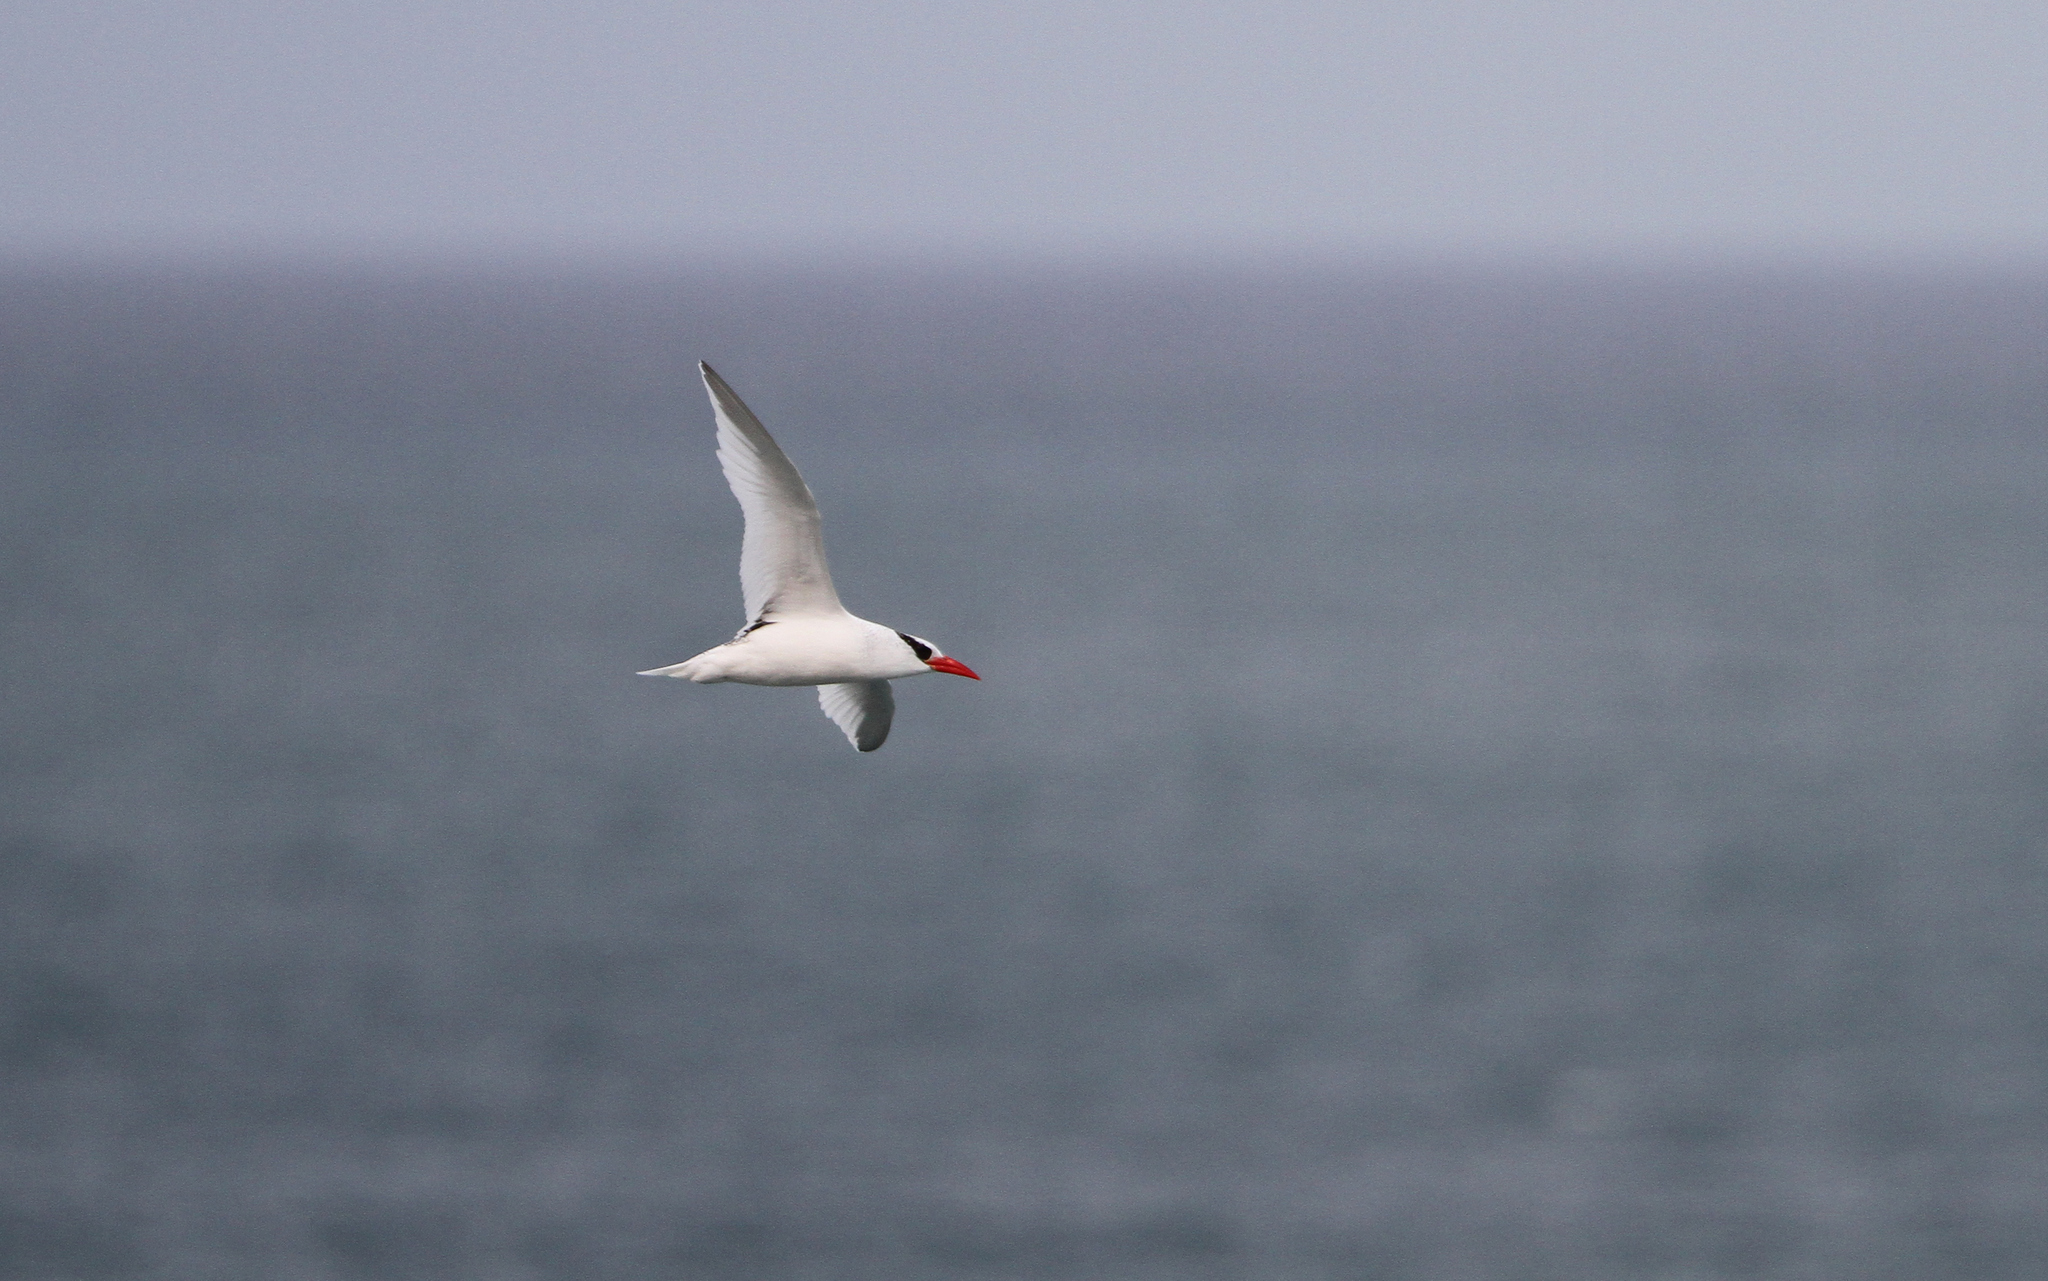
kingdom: Animalia
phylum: Chordata
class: Aves
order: Phaethontiformes
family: Phaethontidae
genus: Phaethon
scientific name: Phaethon aethereus
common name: Red-billed tropicbird
